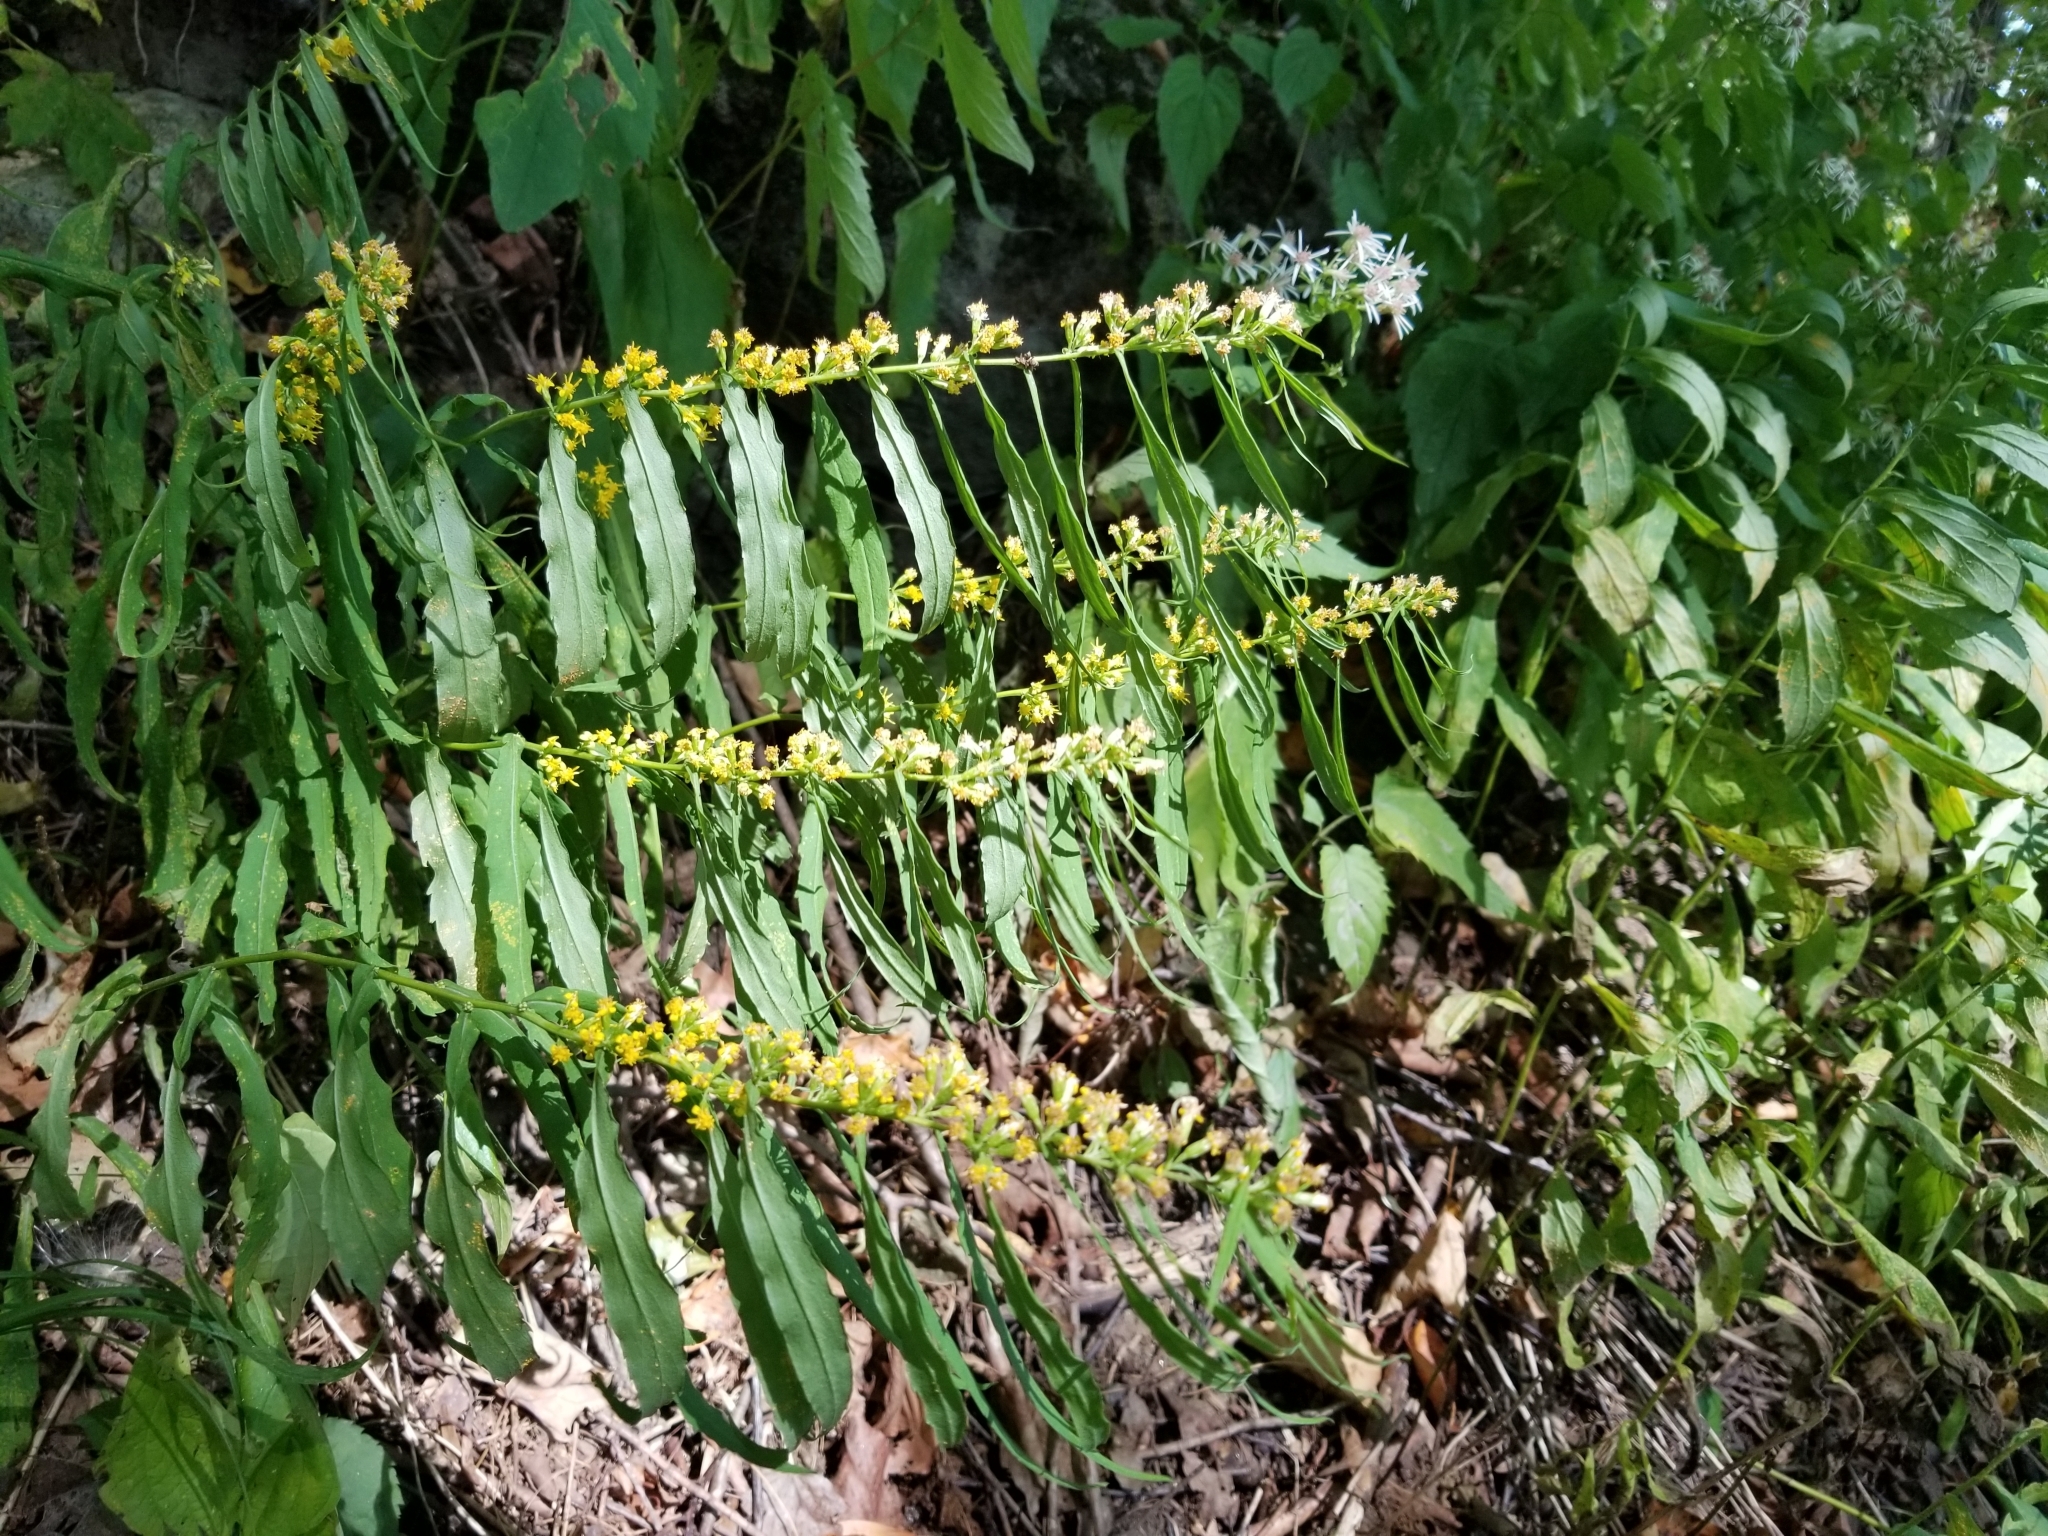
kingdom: Plantae
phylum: Tracheophyta
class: Magnoliopsida
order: Asterales
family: Asteraceae
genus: Solidago
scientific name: Solidago caesia
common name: Woodland goldenrod
